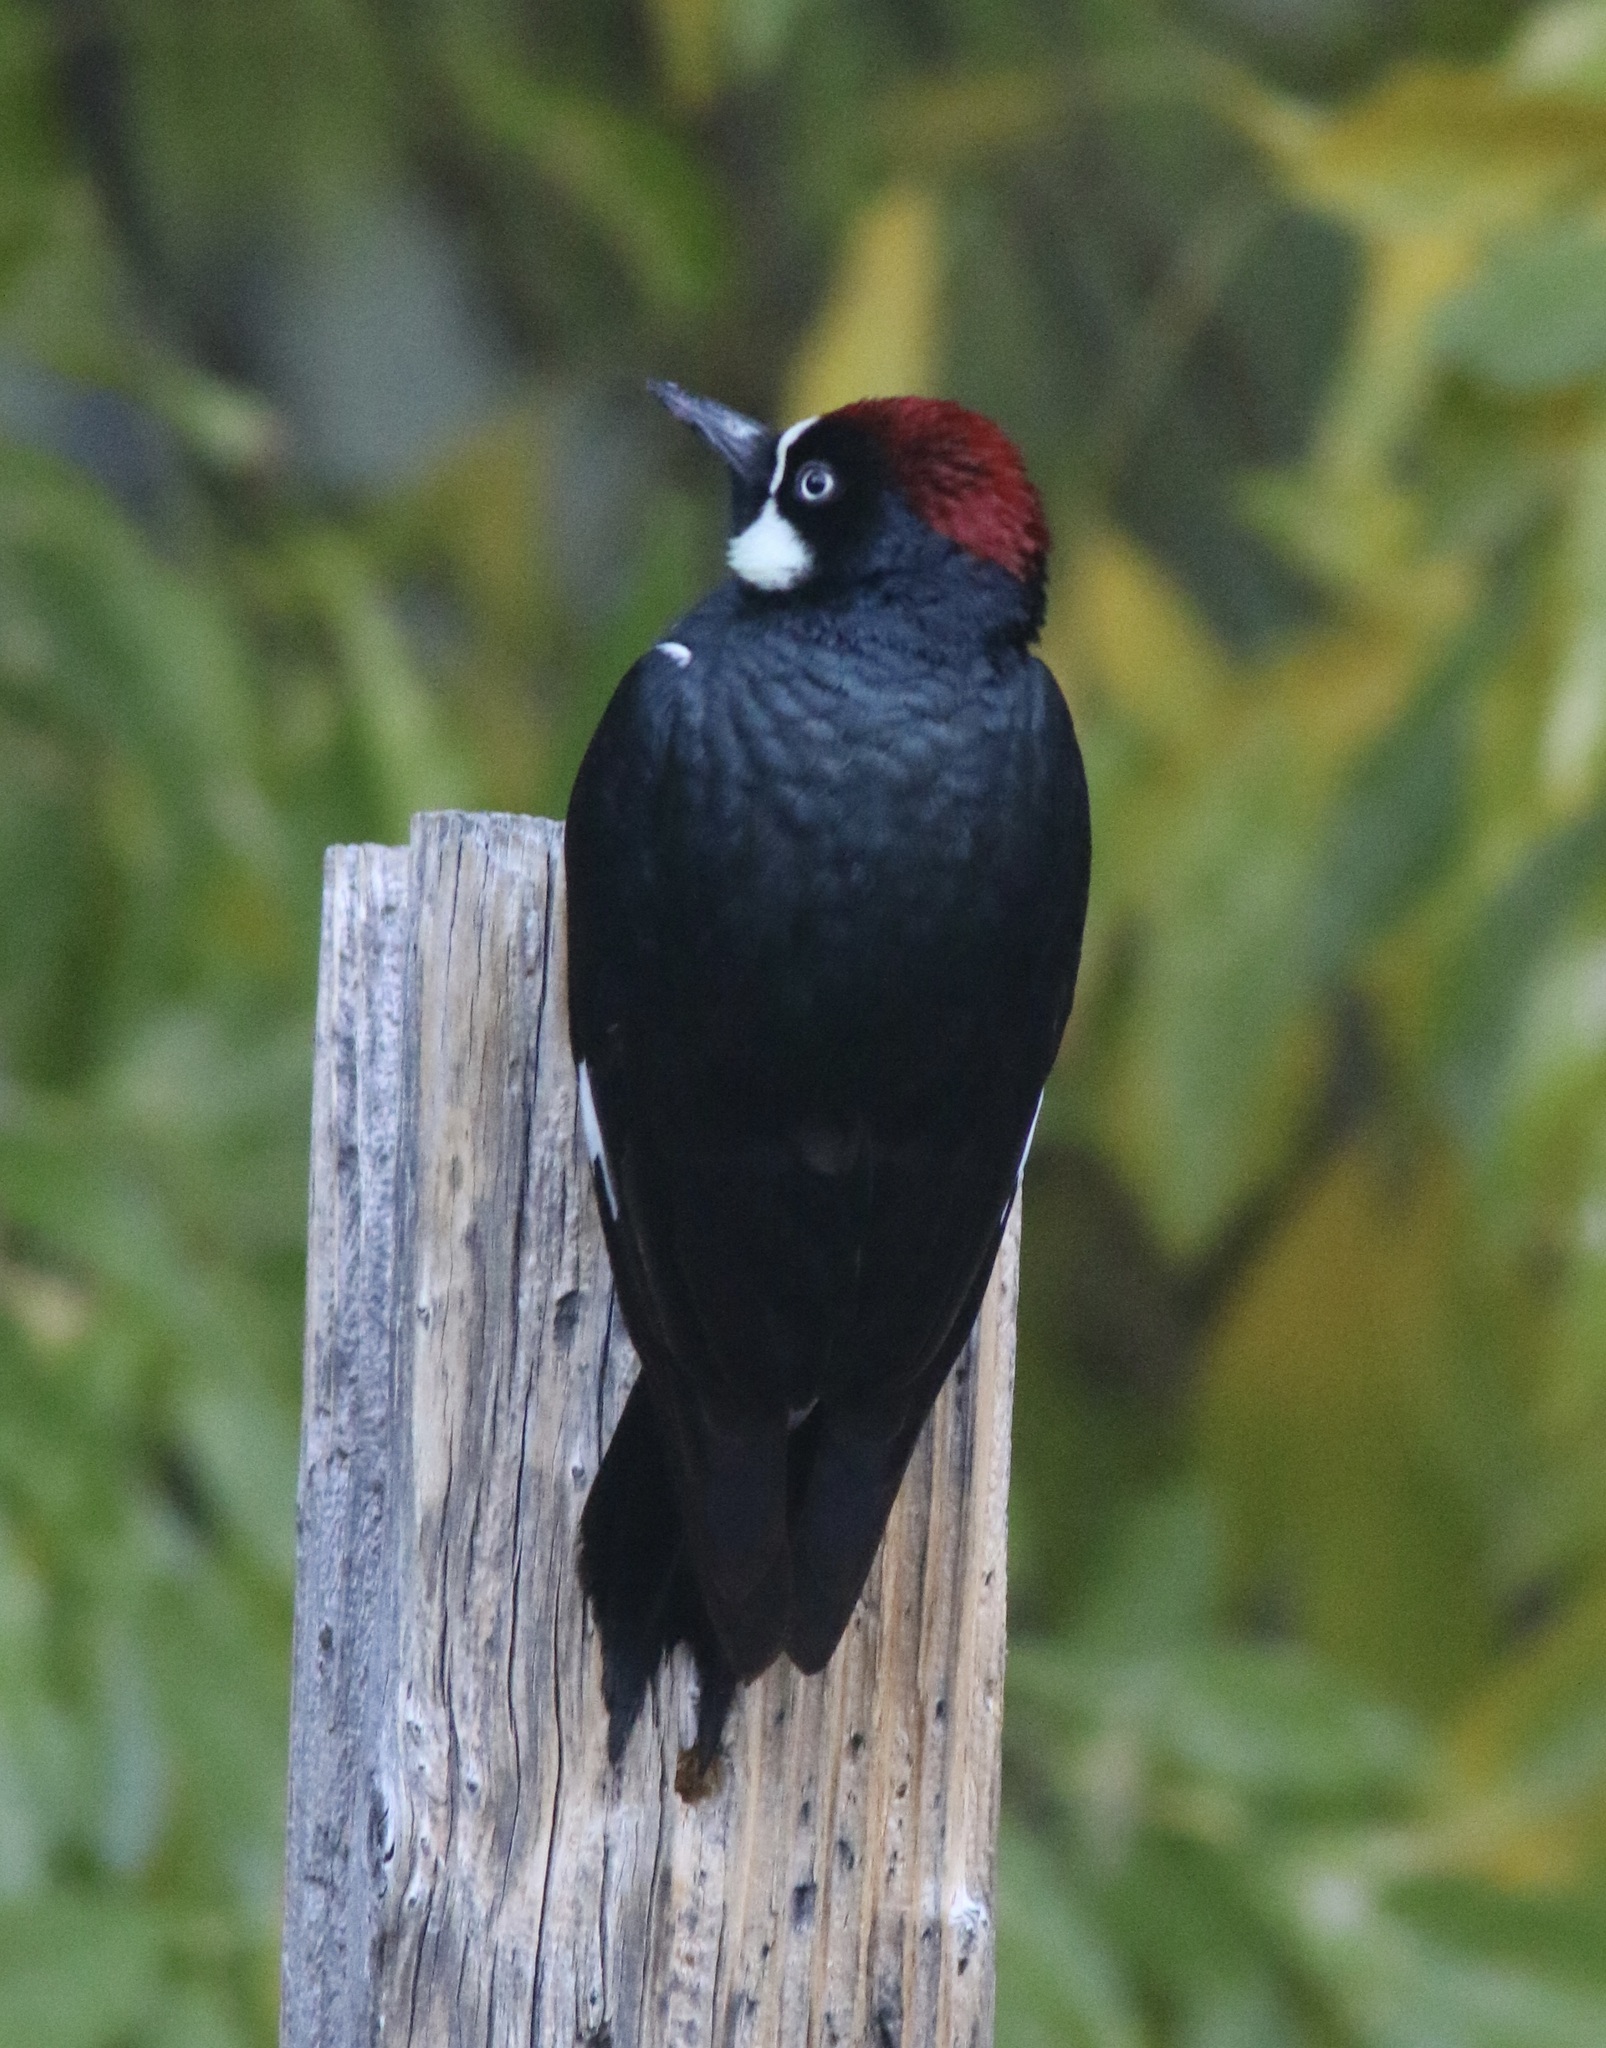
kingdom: Animalia
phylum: Chordata
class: Aves
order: Piciformes
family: Picidae
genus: Melanerpes
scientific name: Melanerpes formicivorus
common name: Acorn woodpecker
